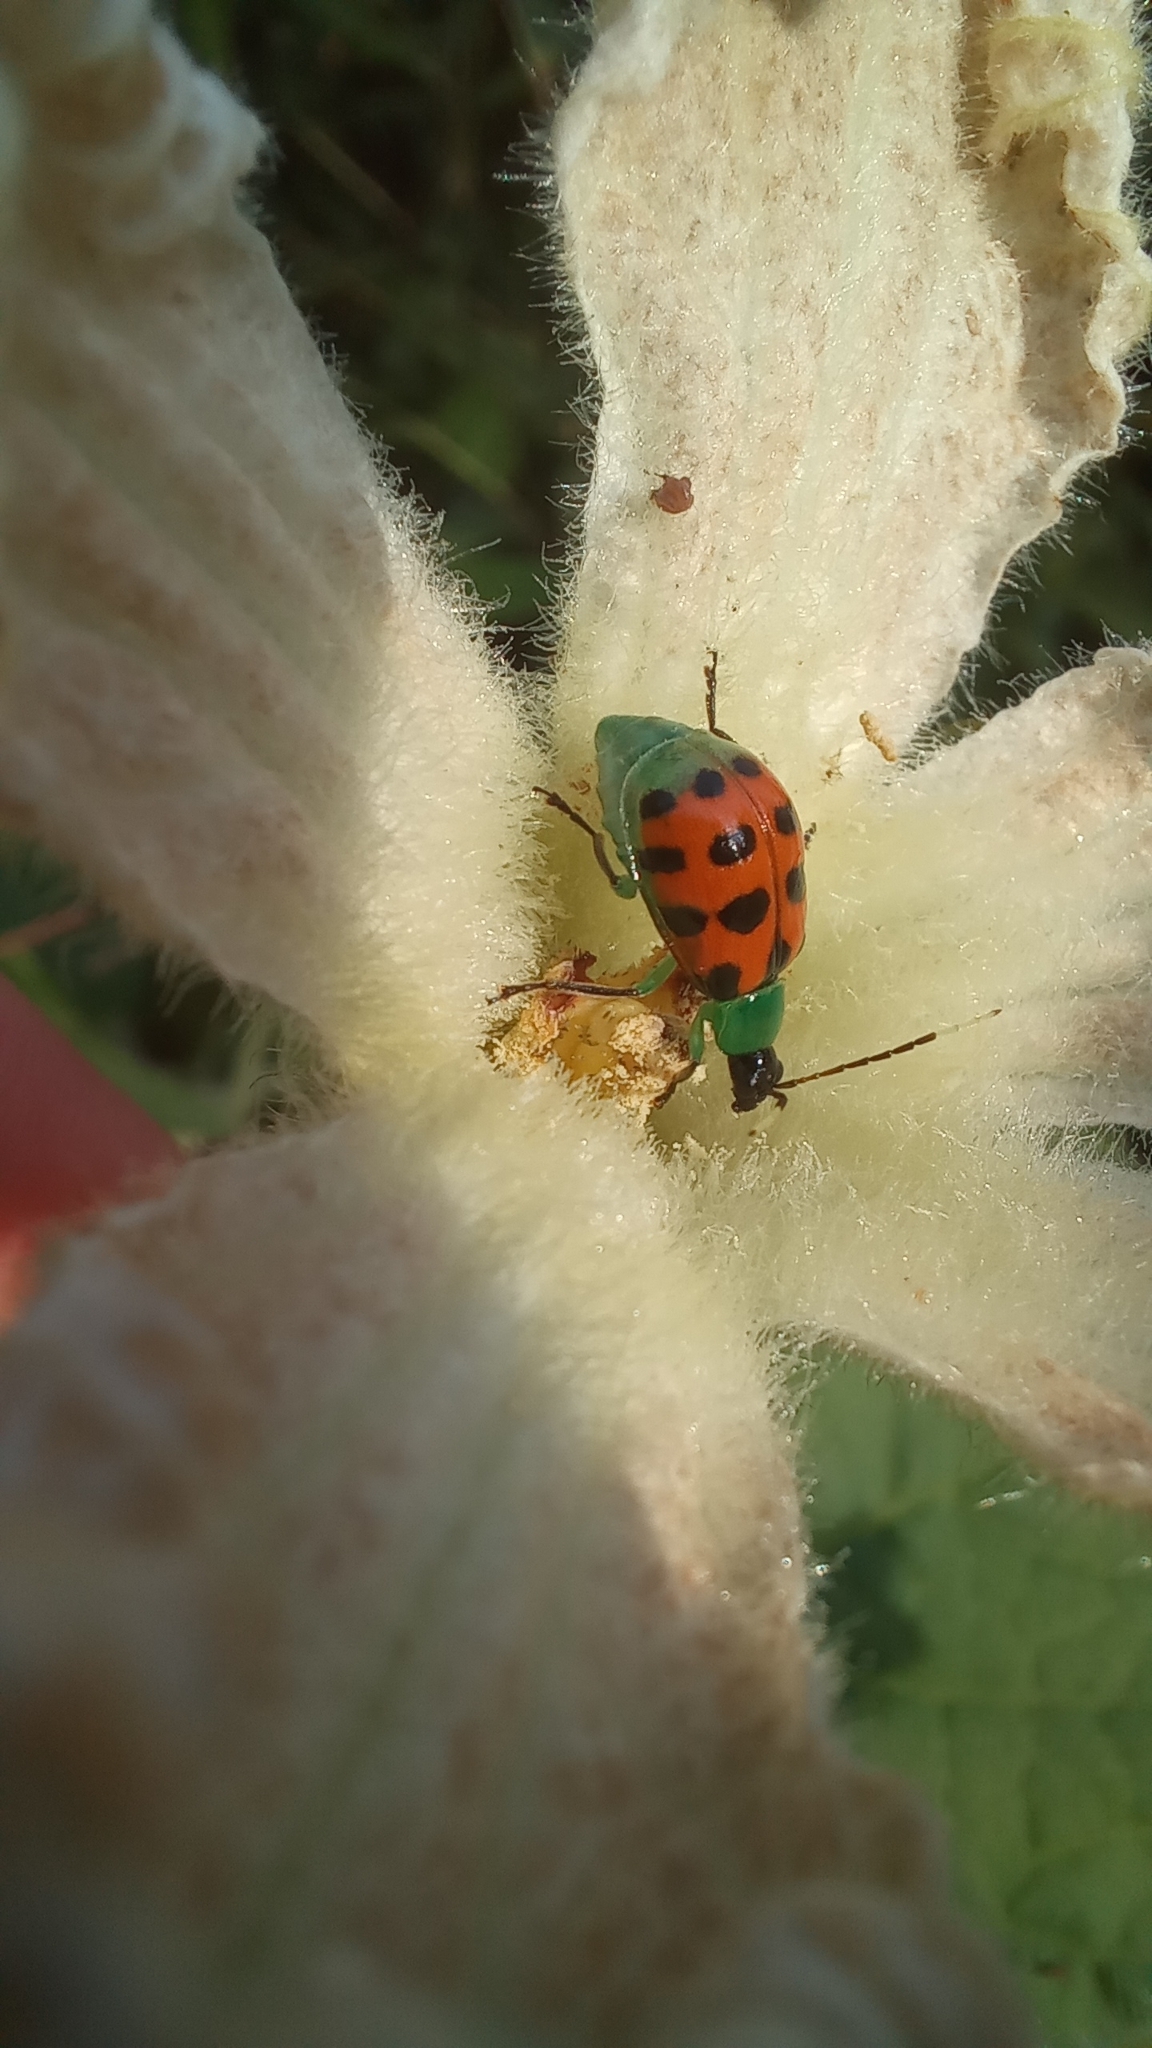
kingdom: Animalia
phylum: Arthropoda
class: Insecta
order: Coleoptera
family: Chrysomelidae
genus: Diabrotica
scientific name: Diabrotica limitata
